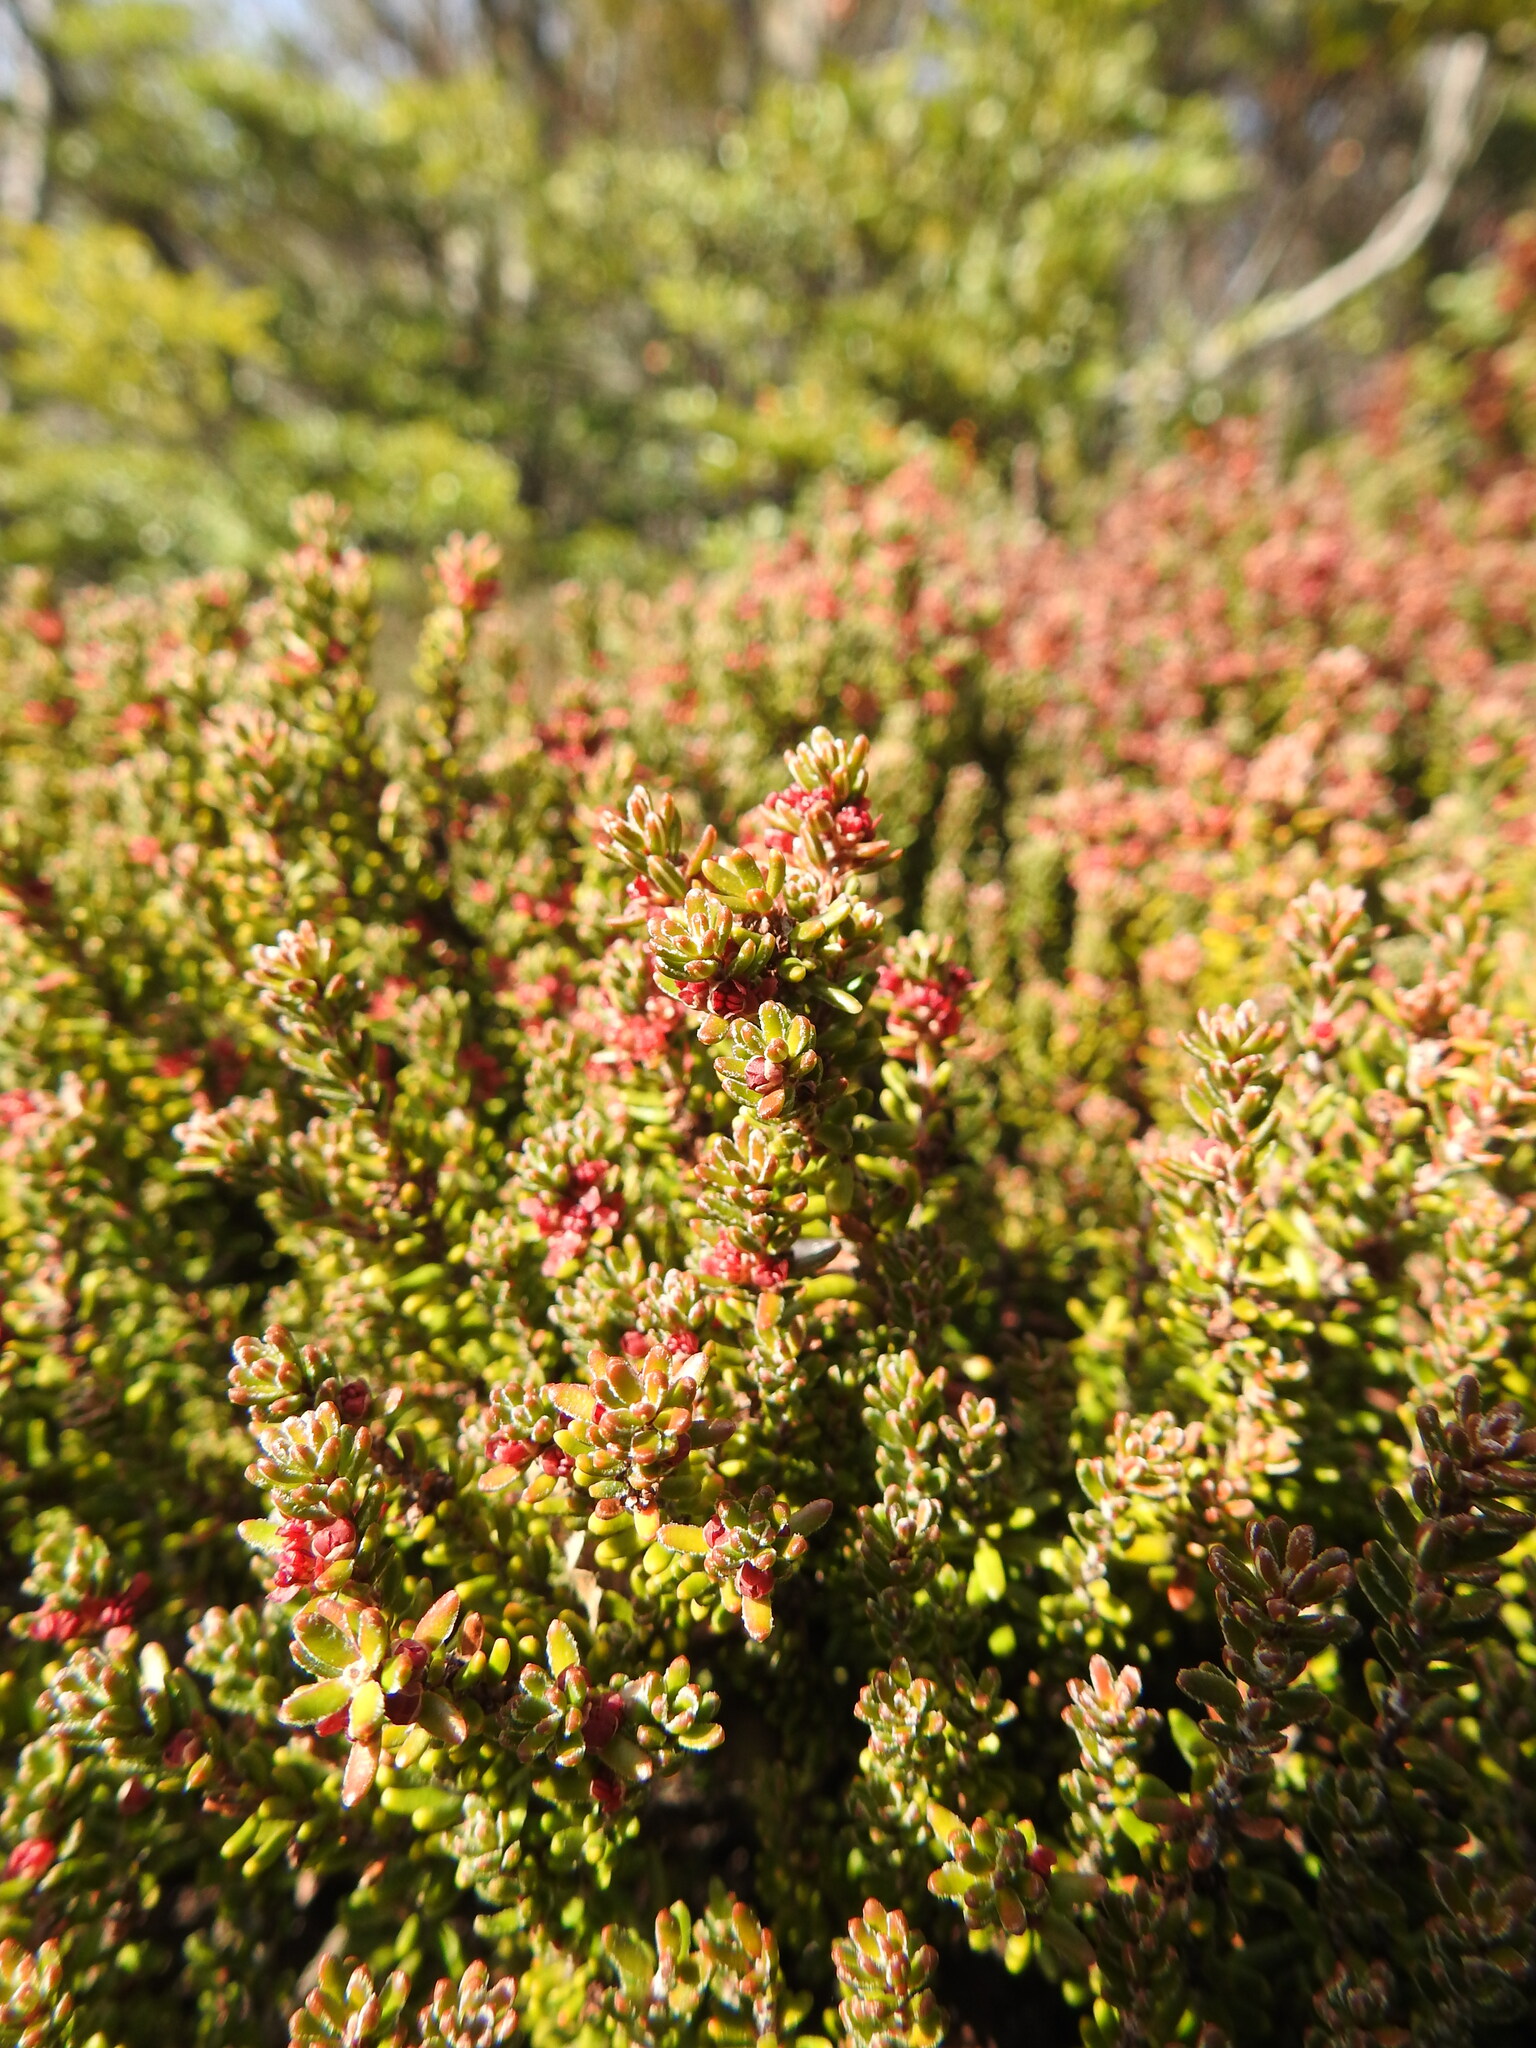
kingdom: Plantae
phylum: Tracheophyta
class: Magnoliopsida
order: Ericales
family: Ericaceae
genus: Empetrum
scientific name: Empetrum rubrum
